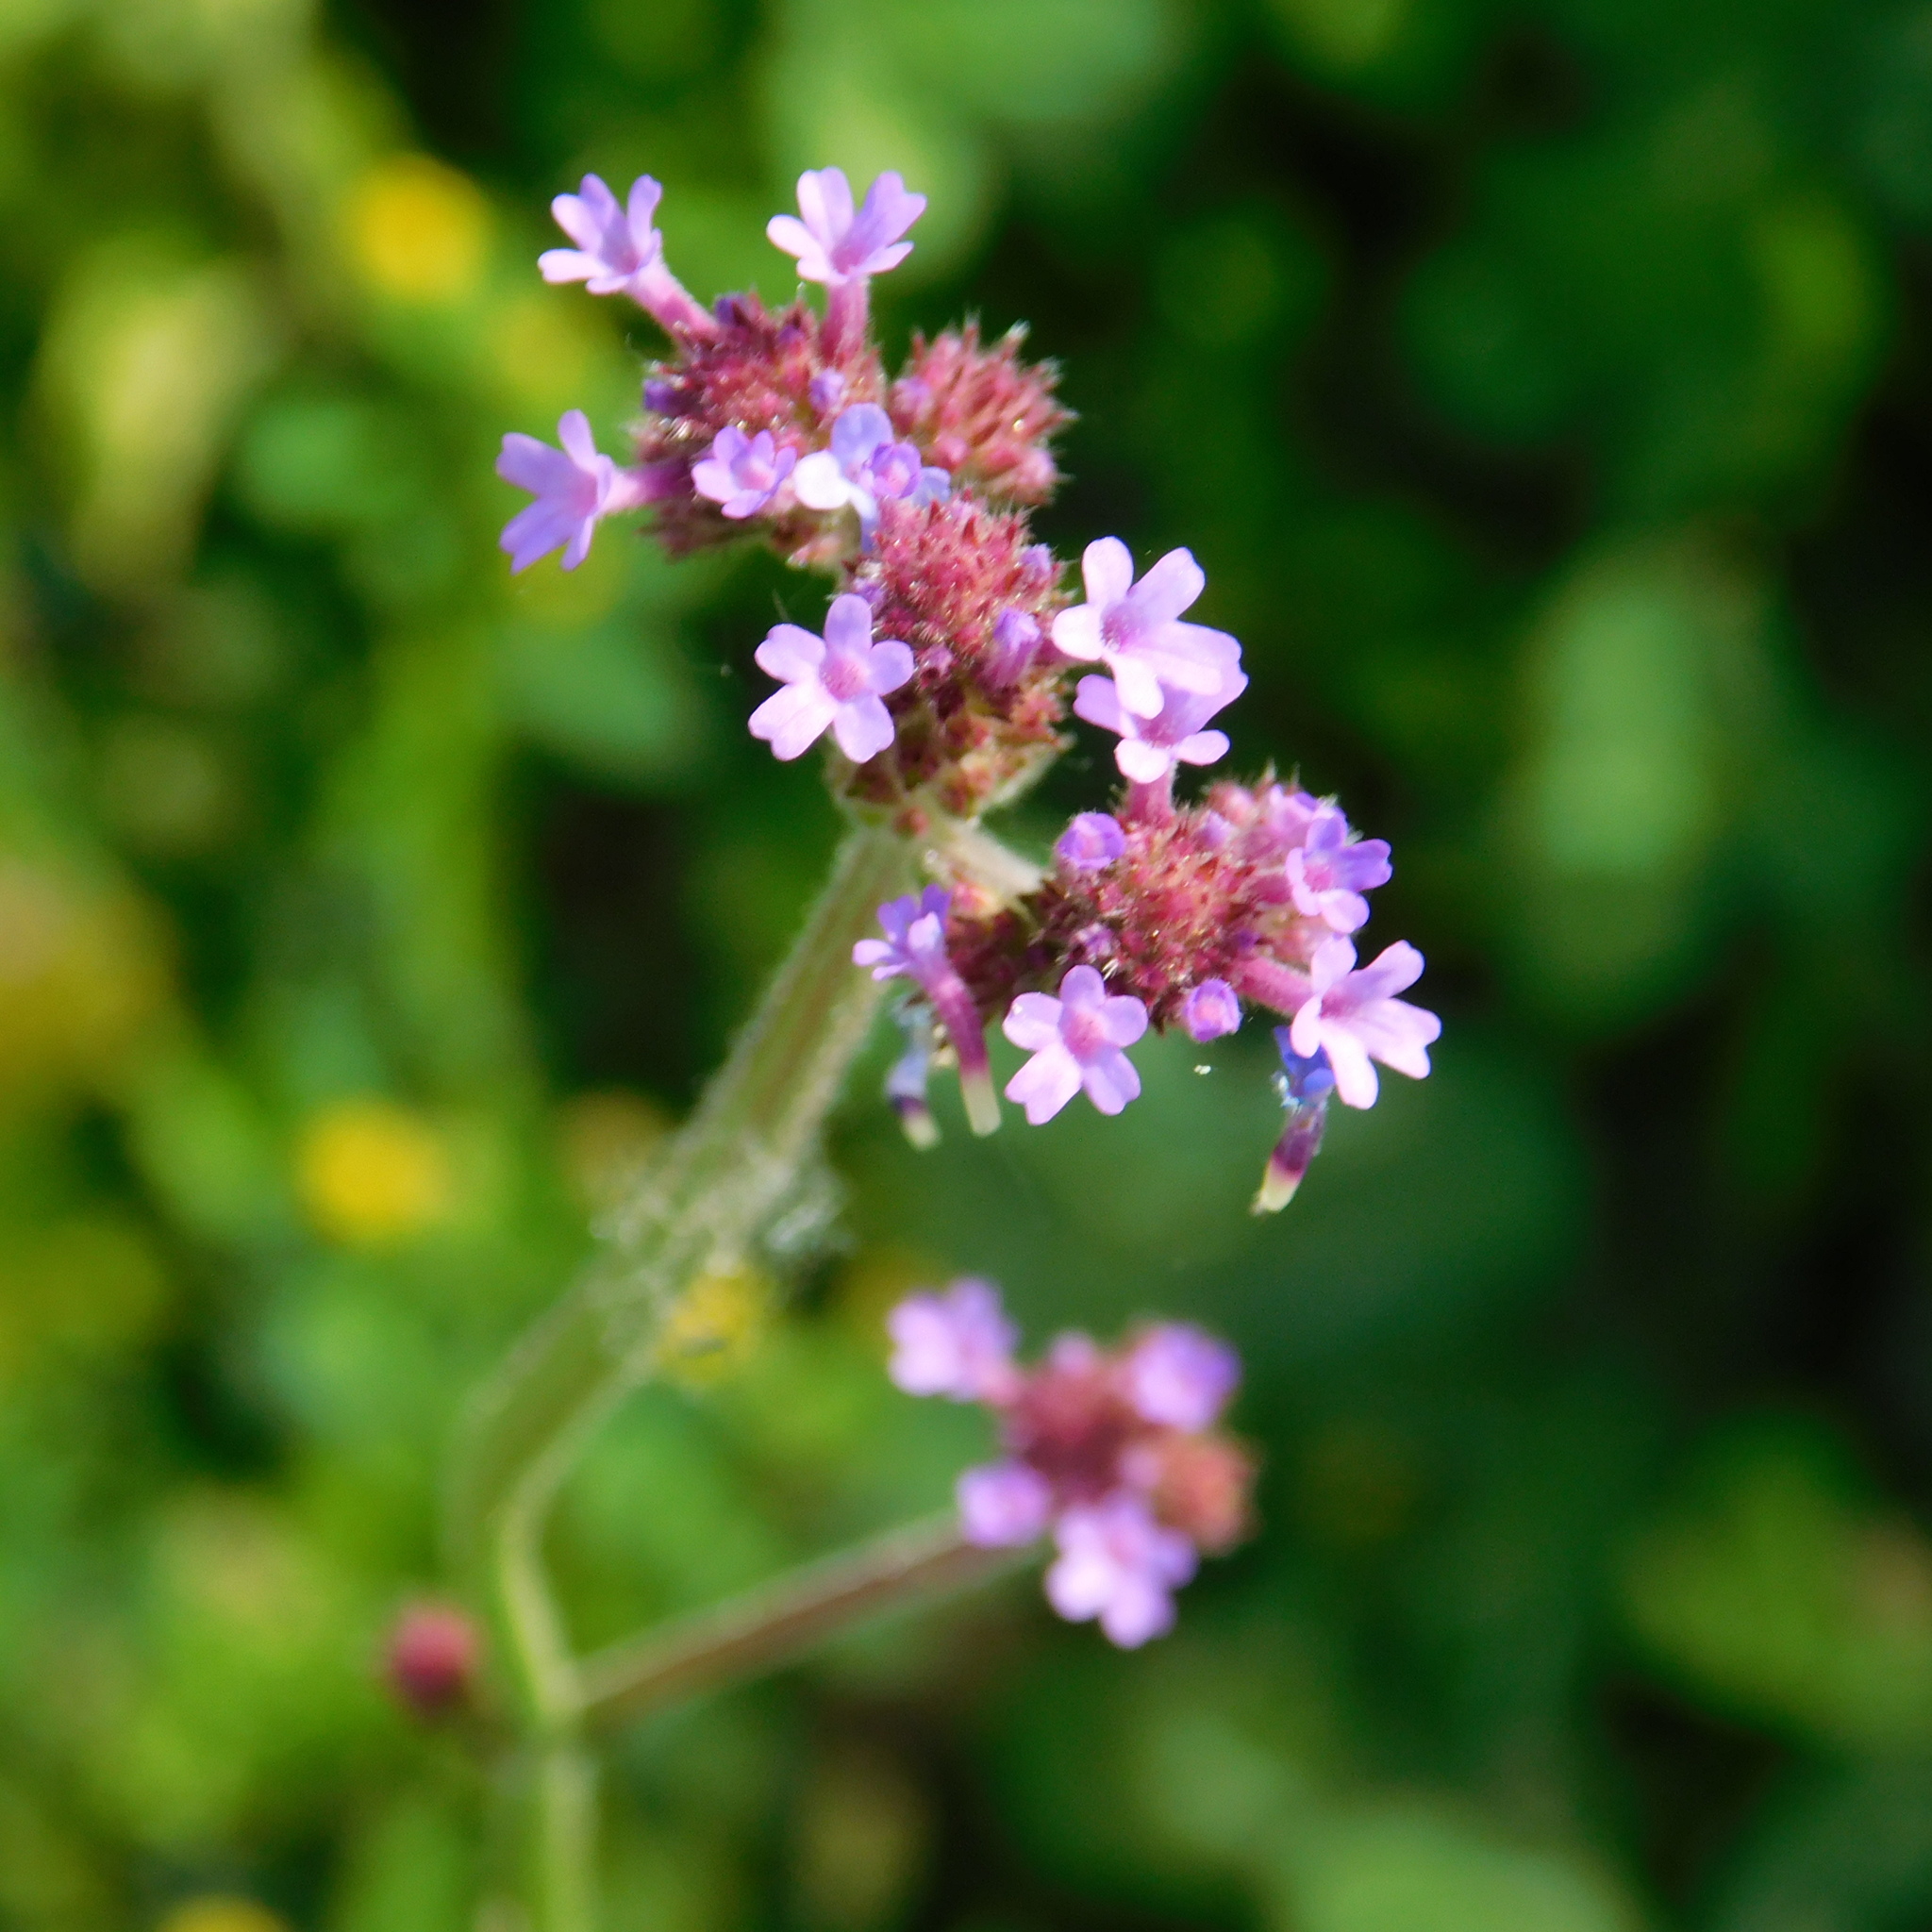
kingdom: Plantae
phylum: Tracheophyta
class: Magnoliopsida
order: Lamiales
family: Verbenaceae
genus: Verbena
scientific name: Verbena bonariensis
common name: Purpletop vervain
